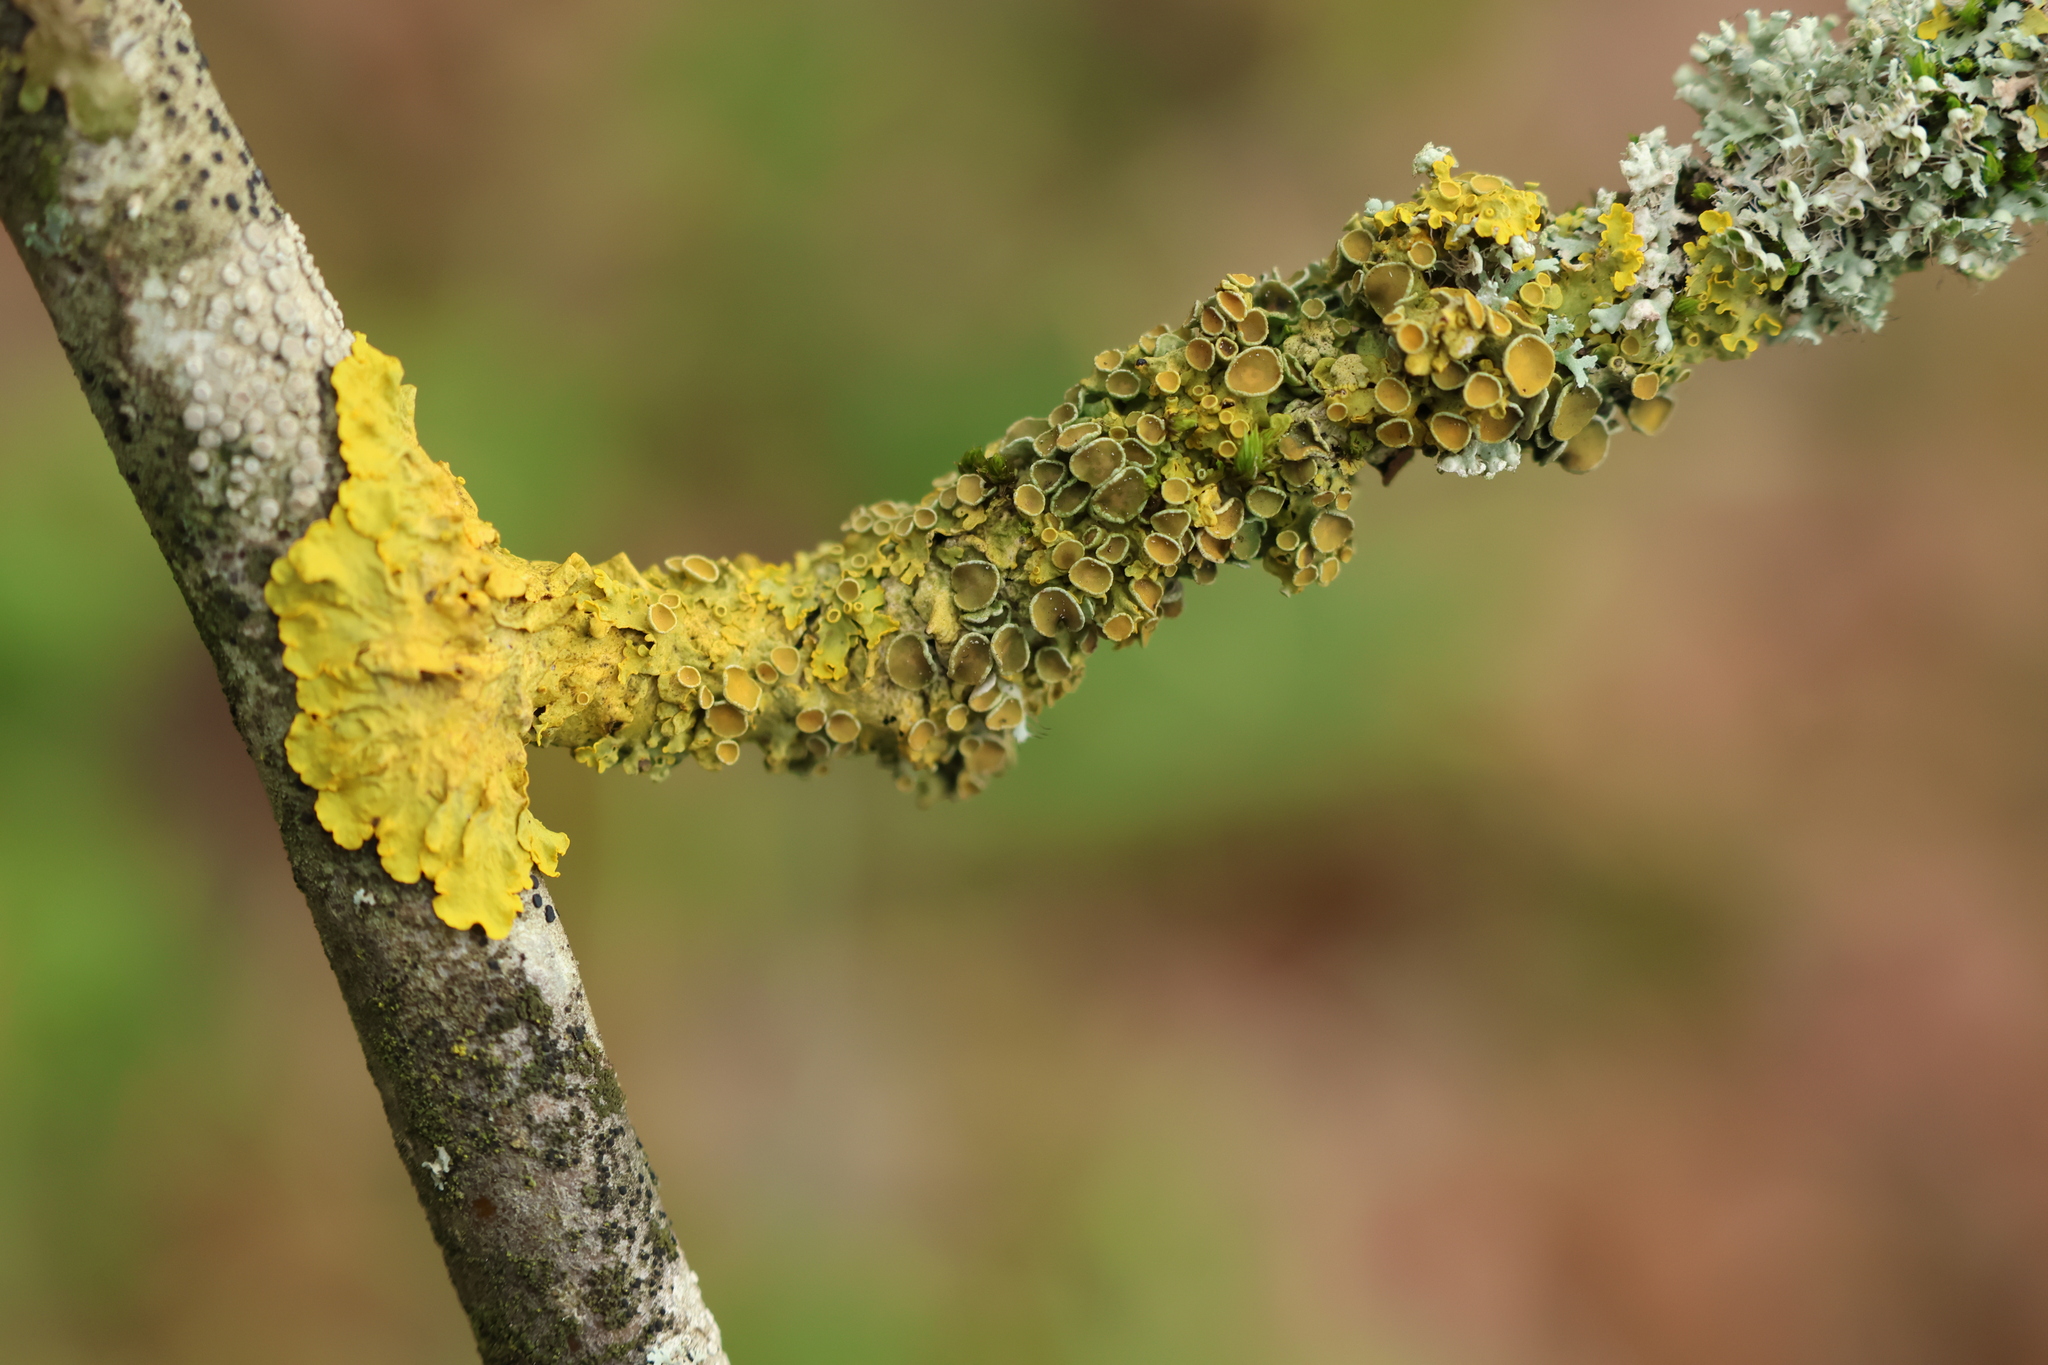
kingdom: Fungi
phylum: Ascomycota
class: Lecanoromycetes
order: Teloschistales
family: Teloschistaceae
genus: Xanthoria
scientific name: Xanthoria parietina
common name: Common orange lichen
